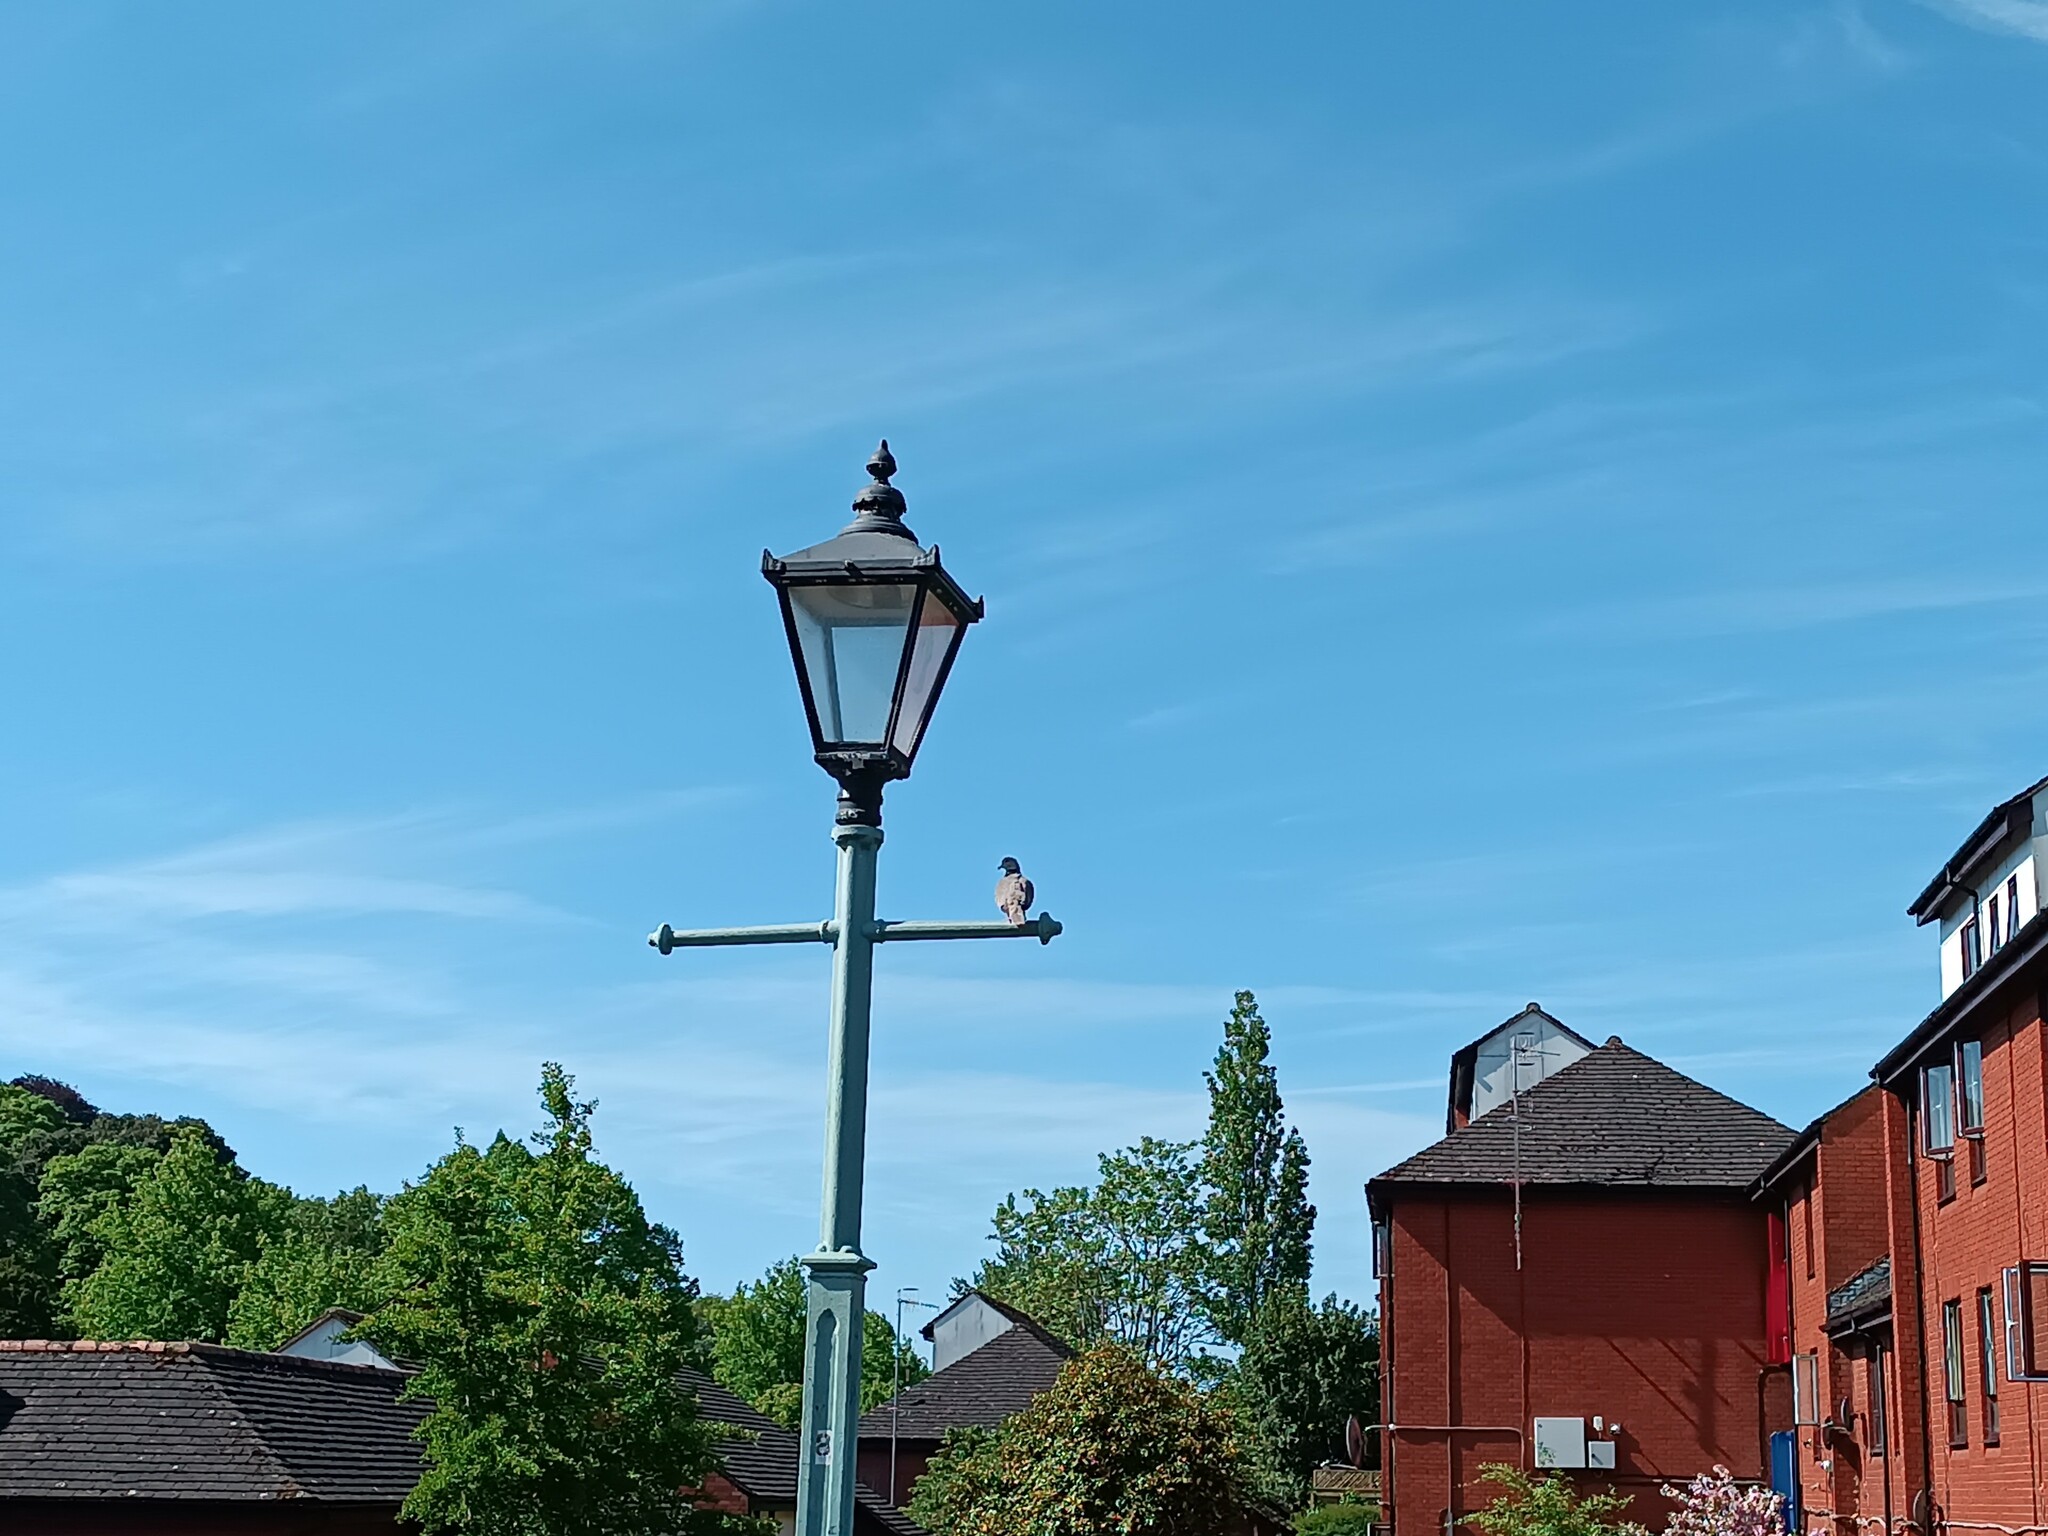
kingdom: Animalia
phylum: Chordata
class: Aves
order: Columbiformes
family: Columbidae
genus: Streptopelia
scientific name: Streptopelia decaocto
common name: Eurasian collared dove
